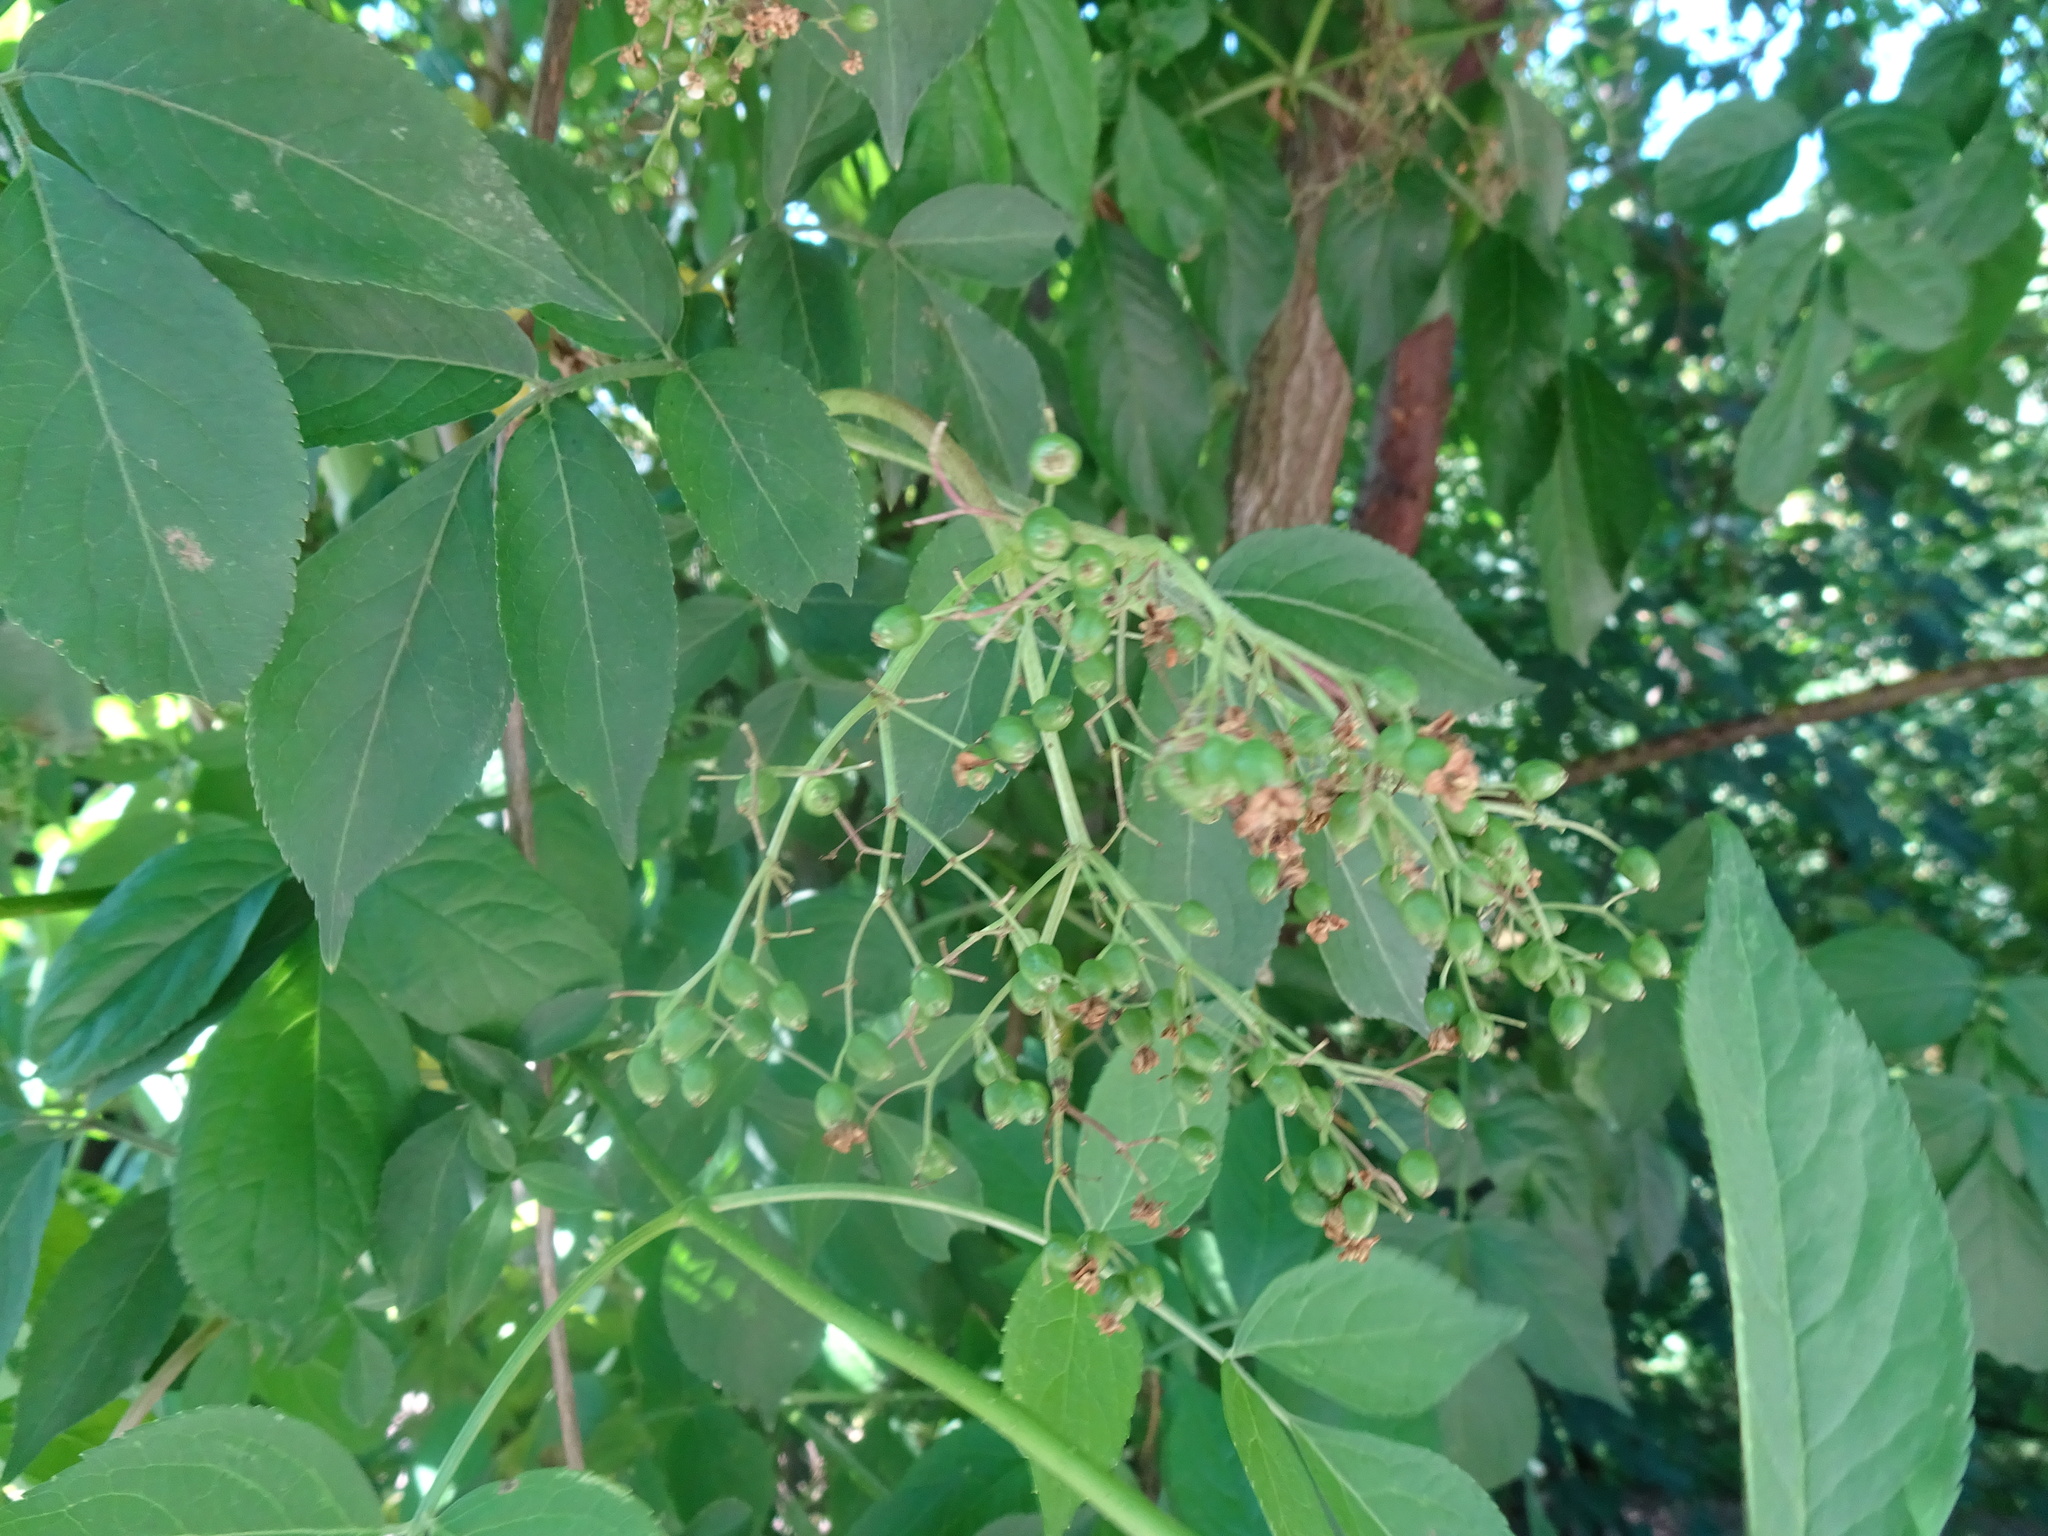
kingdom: Plantae
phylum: Tracheophyta
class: Magnoliopsida
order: Dipsacales
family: Viburnaceae
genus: Sambucus
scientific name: Sambucus nigra
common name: Elder
